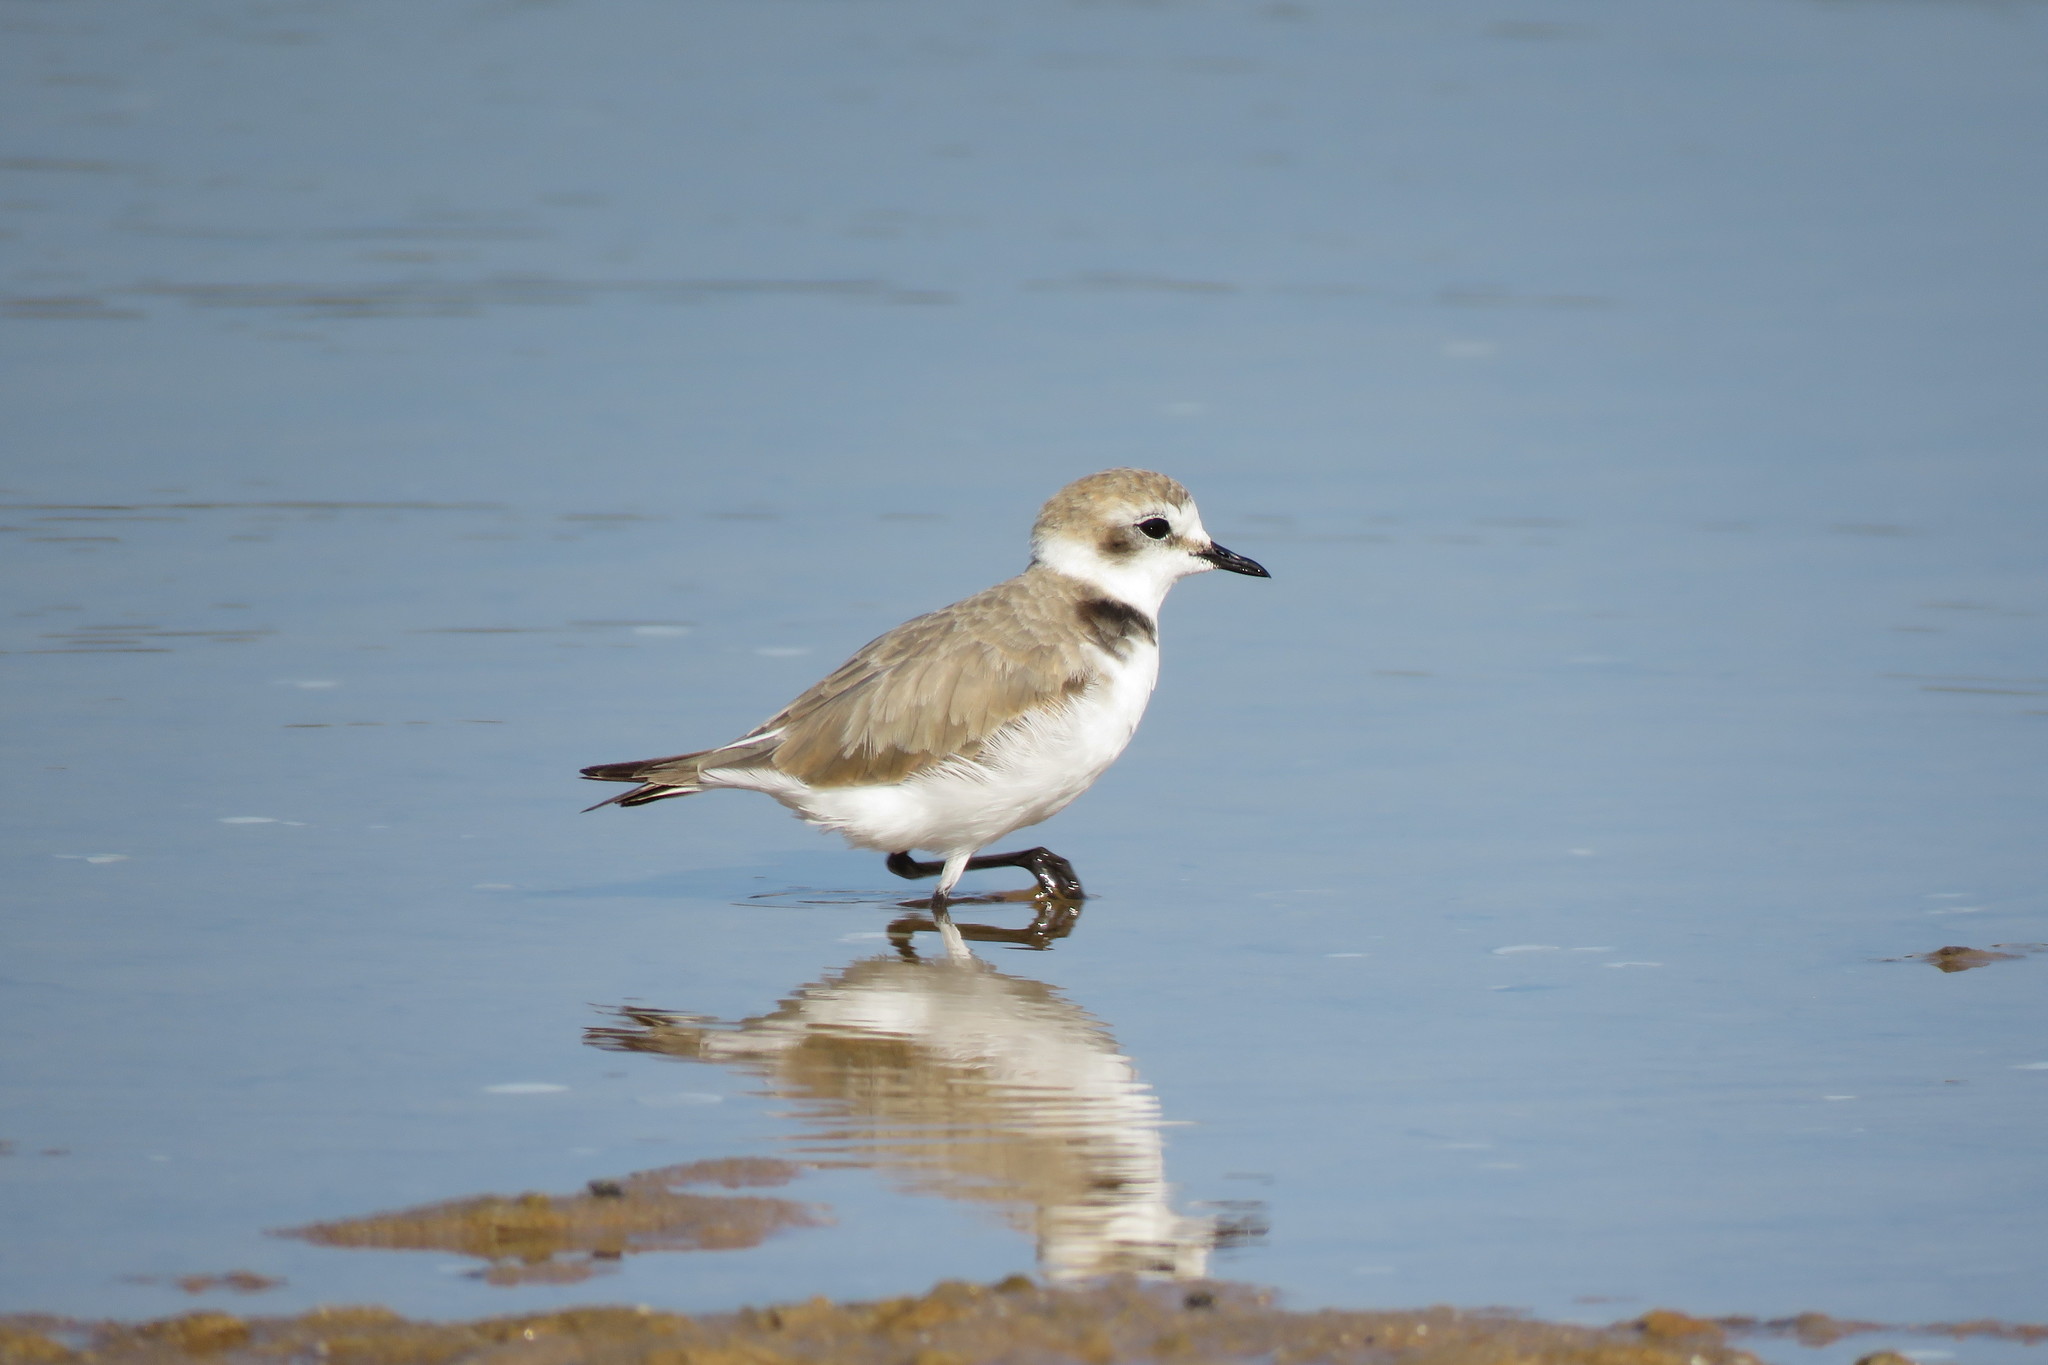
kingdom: Animalia
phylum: Chordata
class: Aves
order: Charadriiformes
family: Charadriidae
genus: Charadrius
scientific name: Charadrius alexandrinus
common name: Kentish plover
